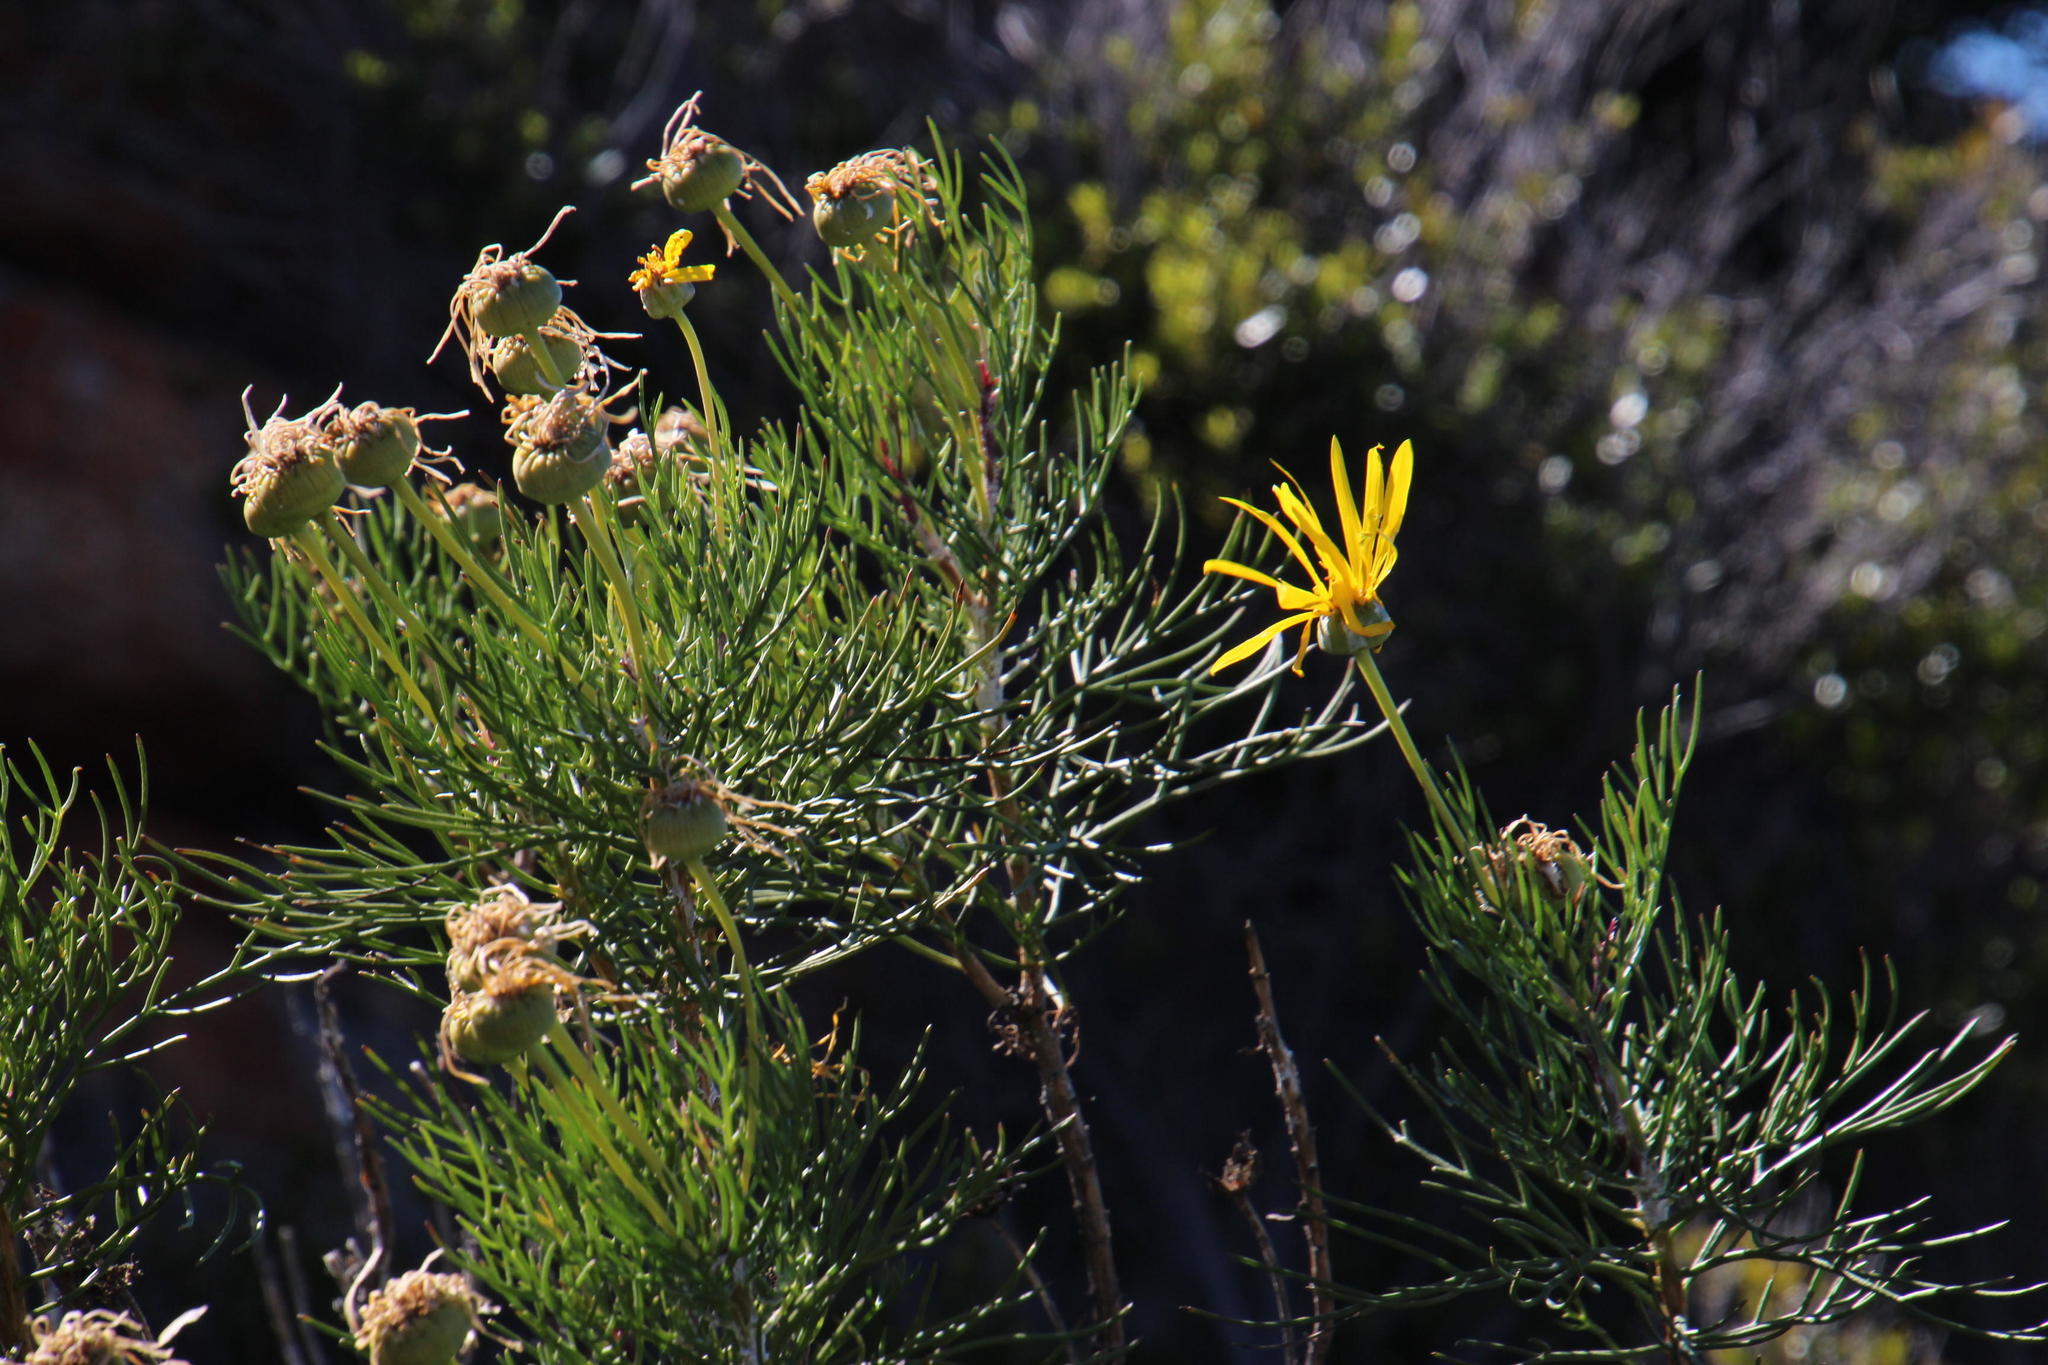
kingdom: Plantae
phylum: Tracheophyta
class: Magnoliopsida
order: Asterales
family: Asteraceae
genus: Euryops
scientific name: Euryops speciosissimus
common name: Clanwilliam daisy
